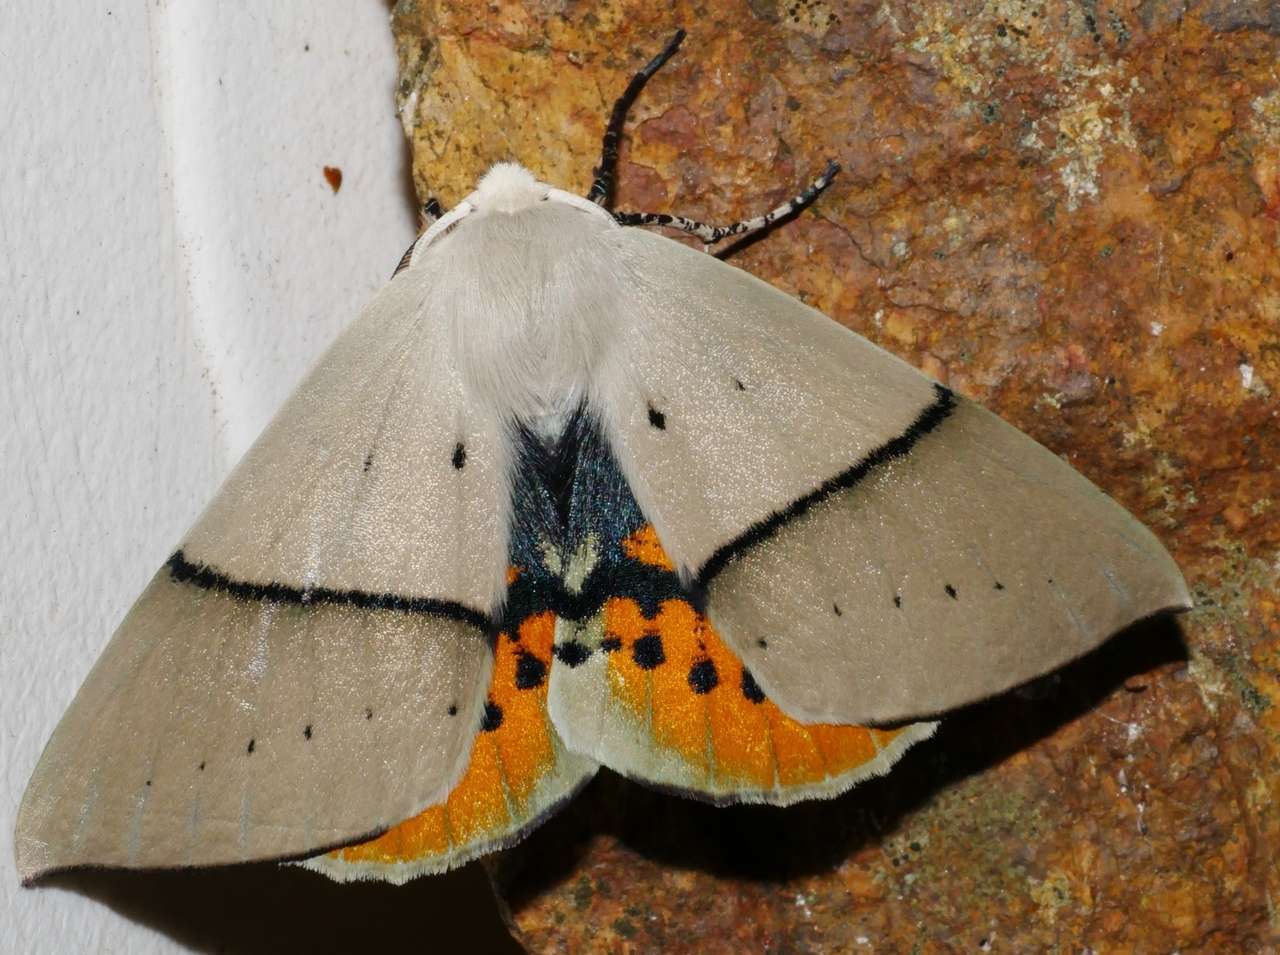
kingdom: Animalia
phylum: Arthropoda
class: Insecta
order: Lepidoptera
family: Geometridae
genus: Gastrophora
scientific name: Gastrophora henricaria
